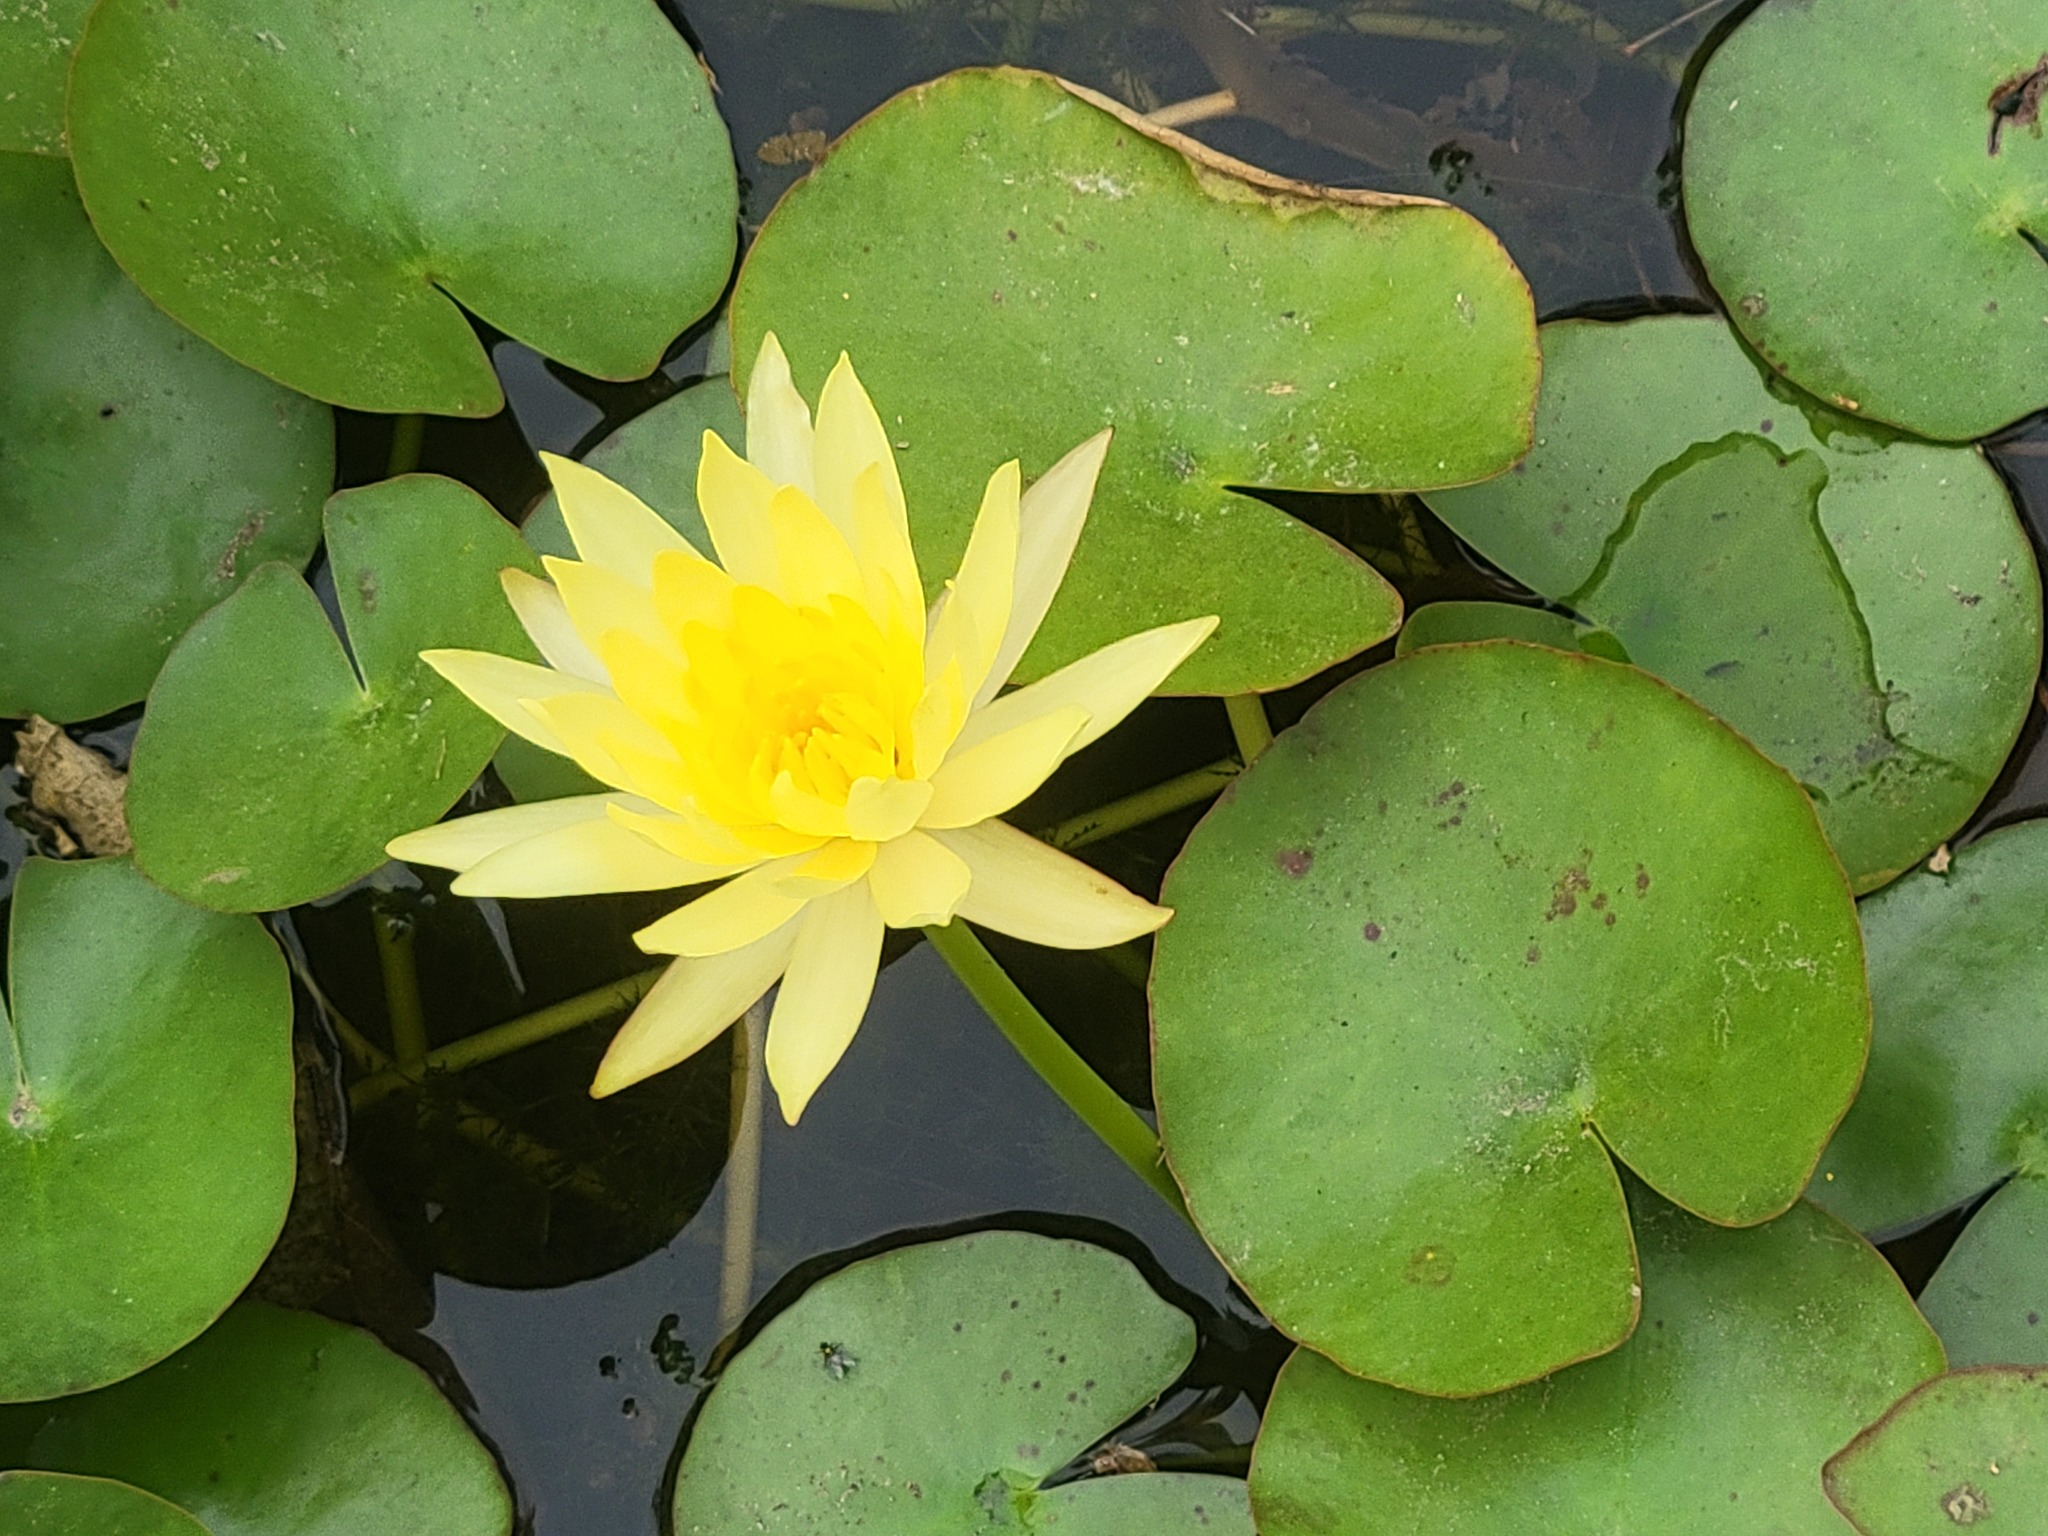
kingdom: Plantae
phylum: Tracheophyta
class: Magnoliopsida
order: Nymphaeales
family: Nymphaeaceae
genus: Nymphaea
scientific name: Nymphaea mexicana
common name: Banana water-lily
